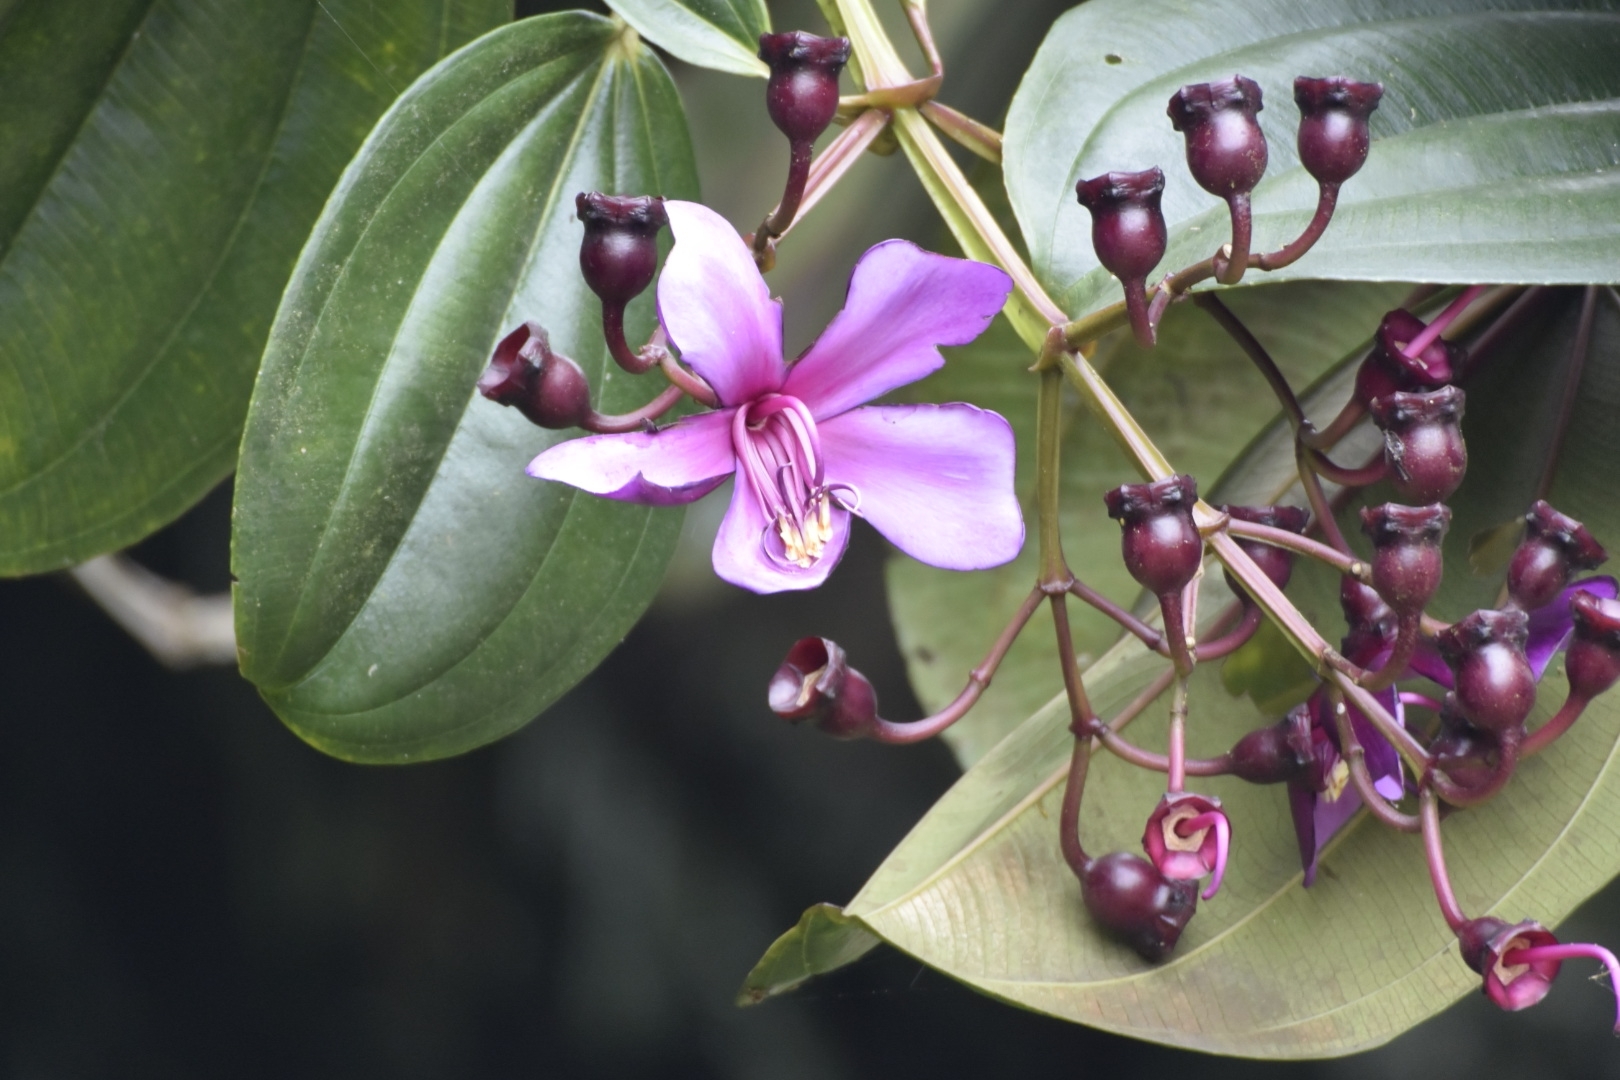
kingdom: Plantae
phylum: Tracheophyta
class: Magnoliopsida
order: Myrtales
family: Melastomataceae
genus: Meriania
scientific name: Meriania nobilis
